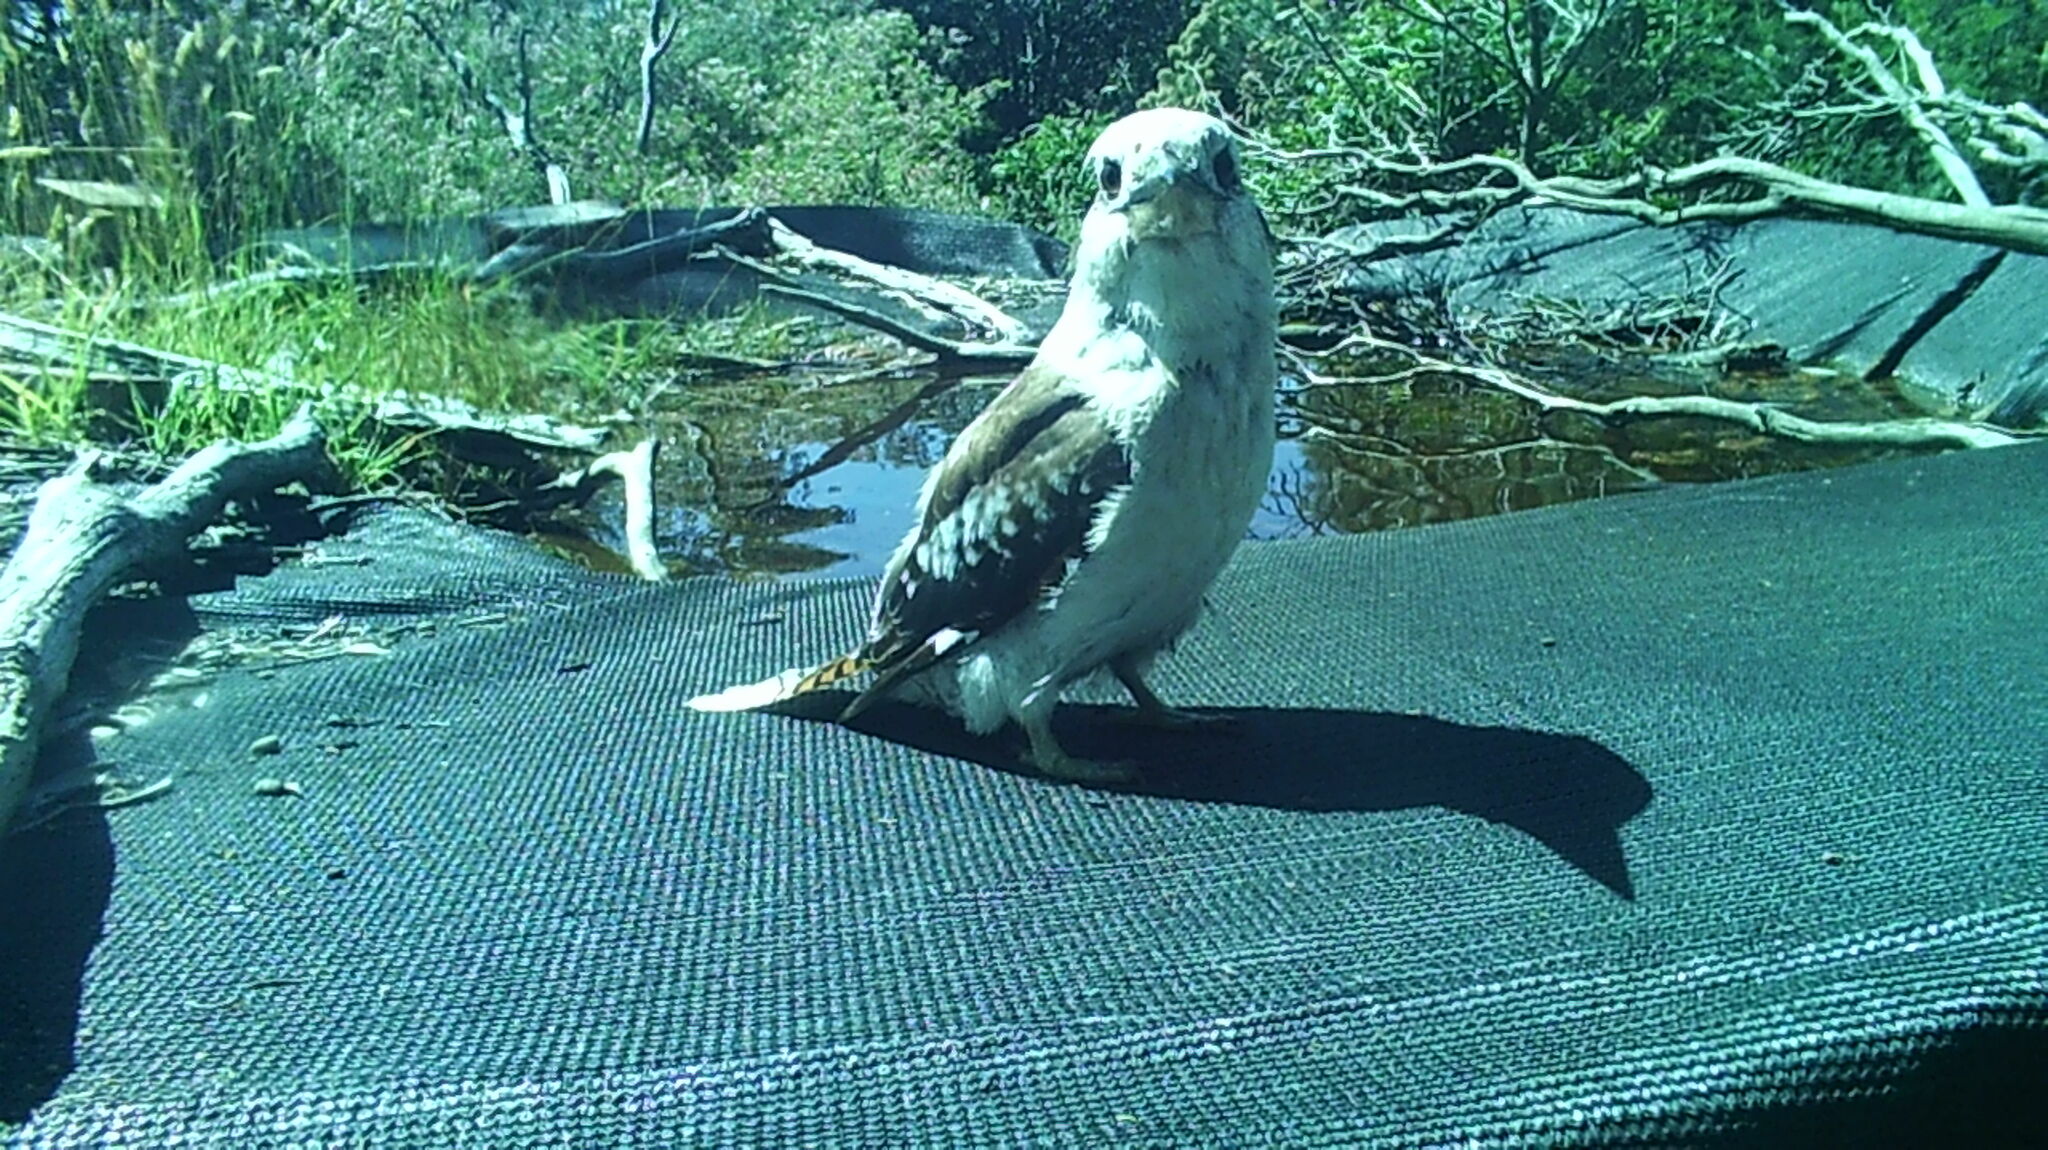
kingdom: Animalia
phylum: Chordata
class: Aves
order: Coraciiformes
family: Alcedinidae
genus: Dacelo
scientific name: Dacelo novaeguineae
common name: Laughing kookaburra
